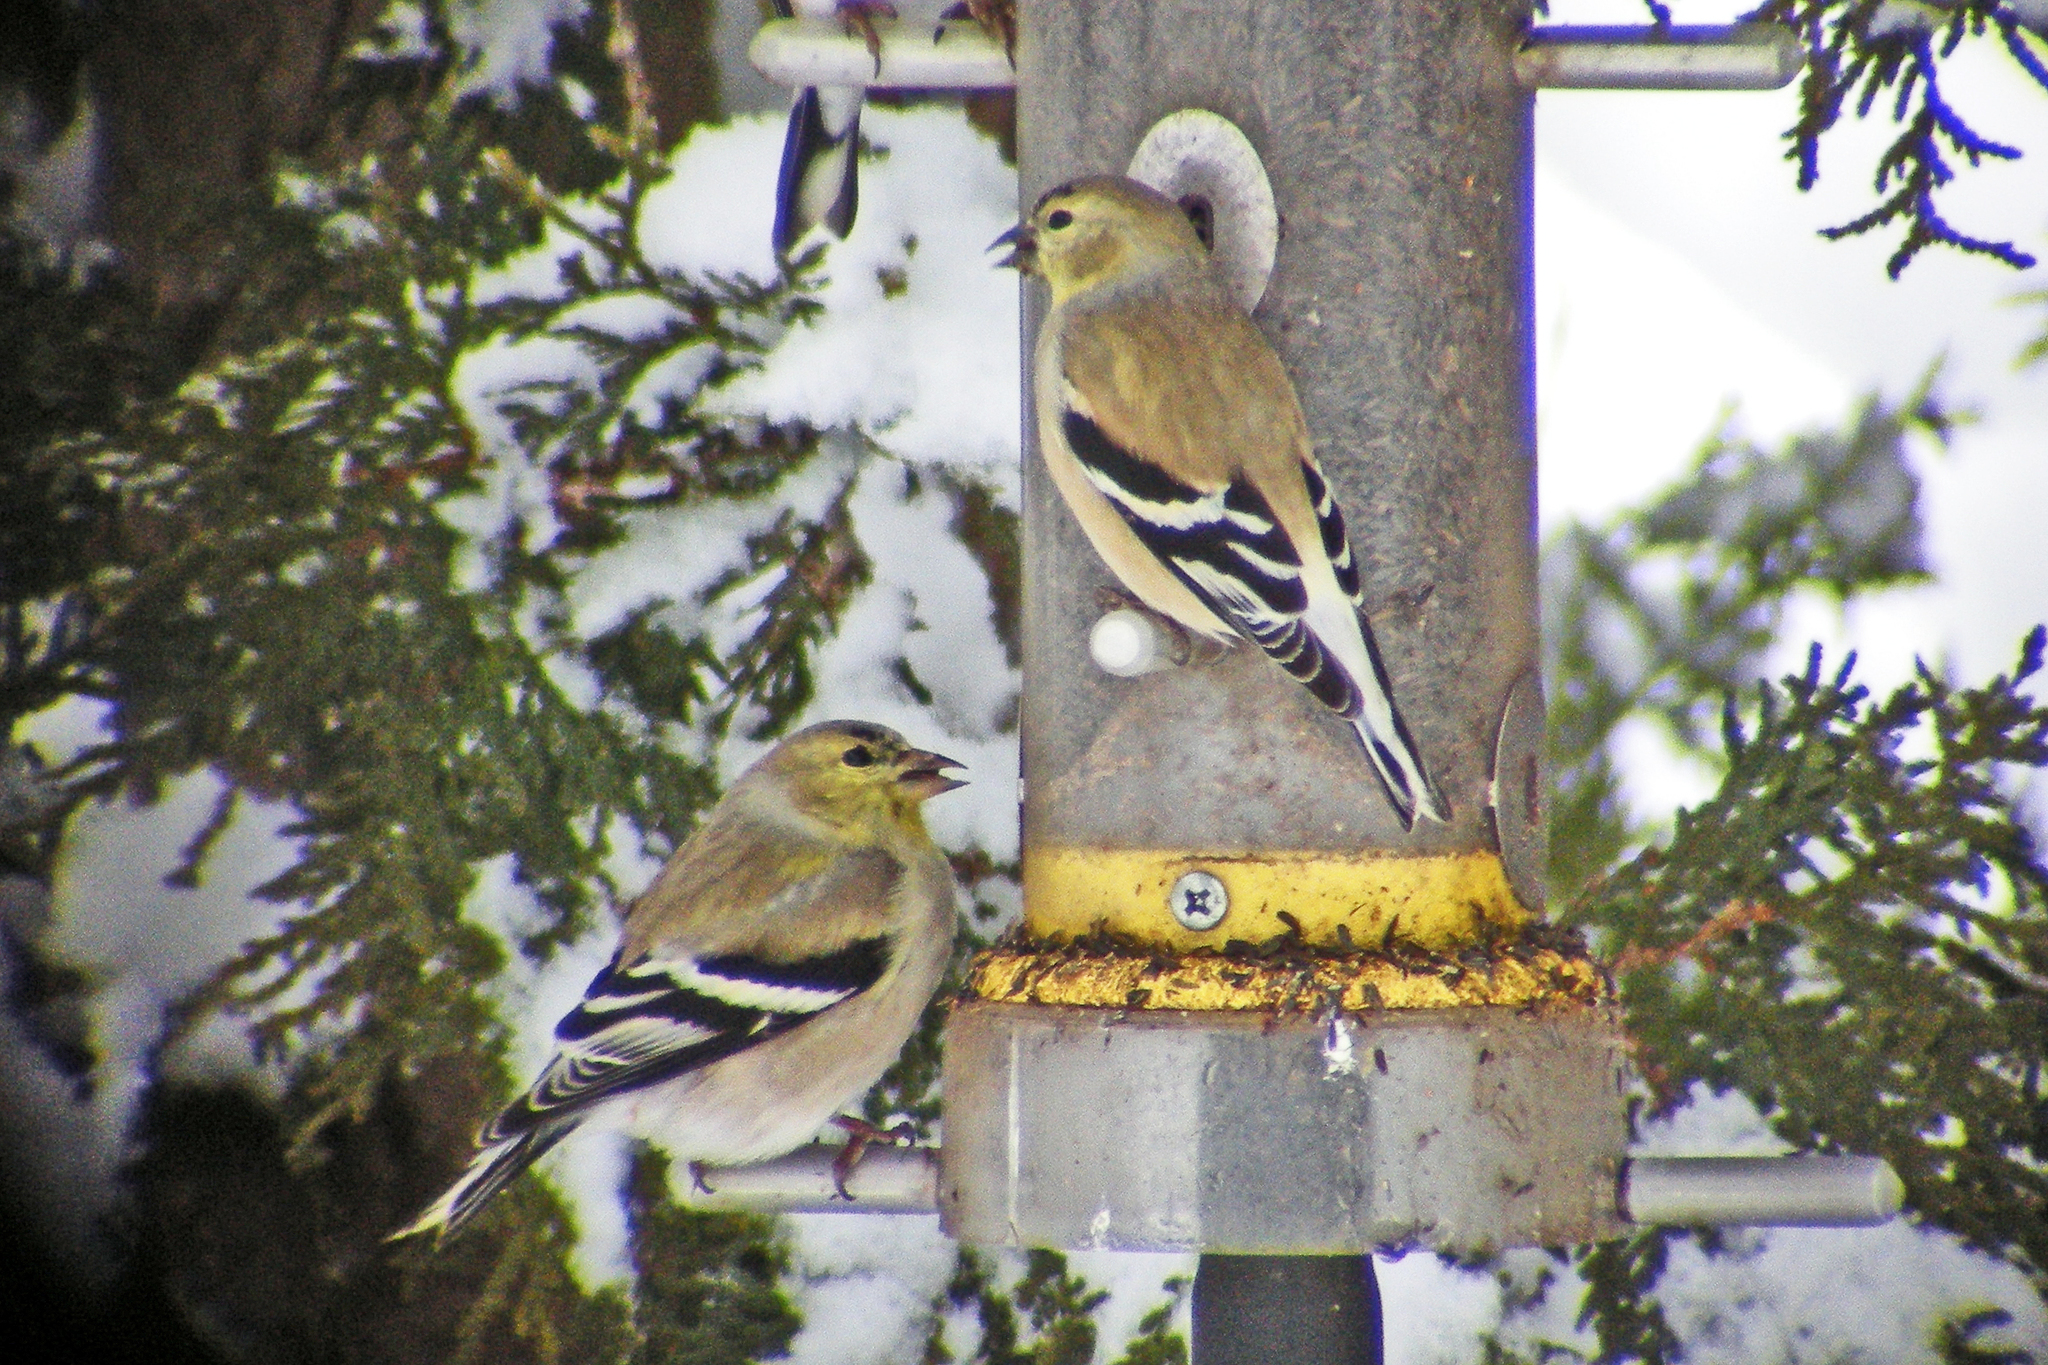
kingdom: Animalia
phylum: Chordata
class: Aves
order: Passeriformes
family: Fringillidae
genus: Spinus
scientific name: Spinus tristis
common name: American goldfinch
